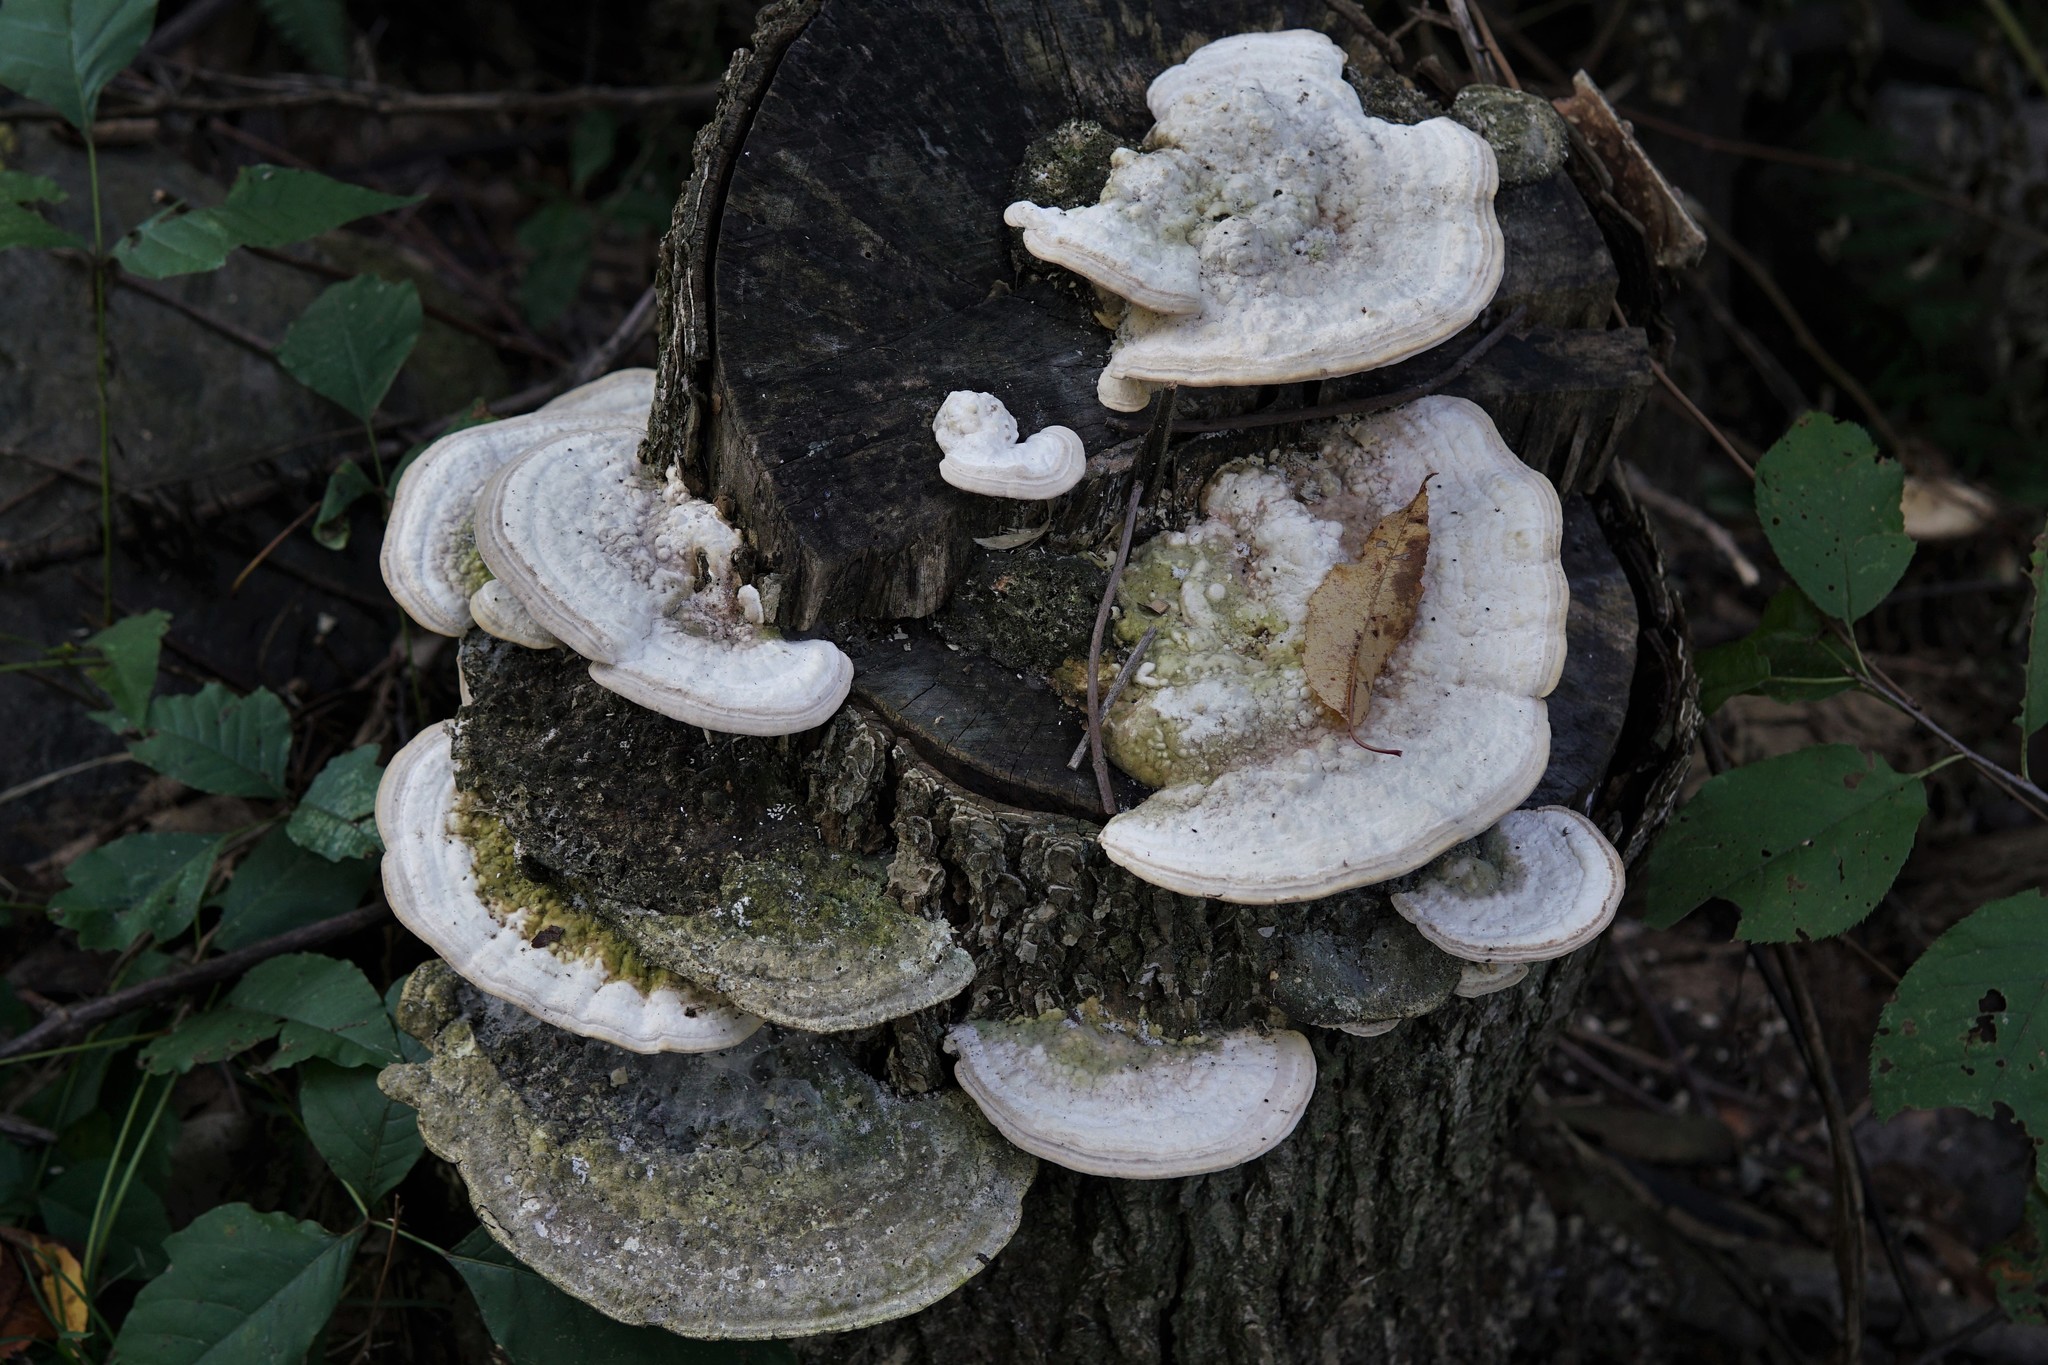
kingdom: Fungi
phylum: Basidiomycota
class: Agaricomycetes
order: Polyporales
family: Polyporaceae
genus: Trametes
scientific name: Trametes gibbosa
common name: Lumpy bracket
